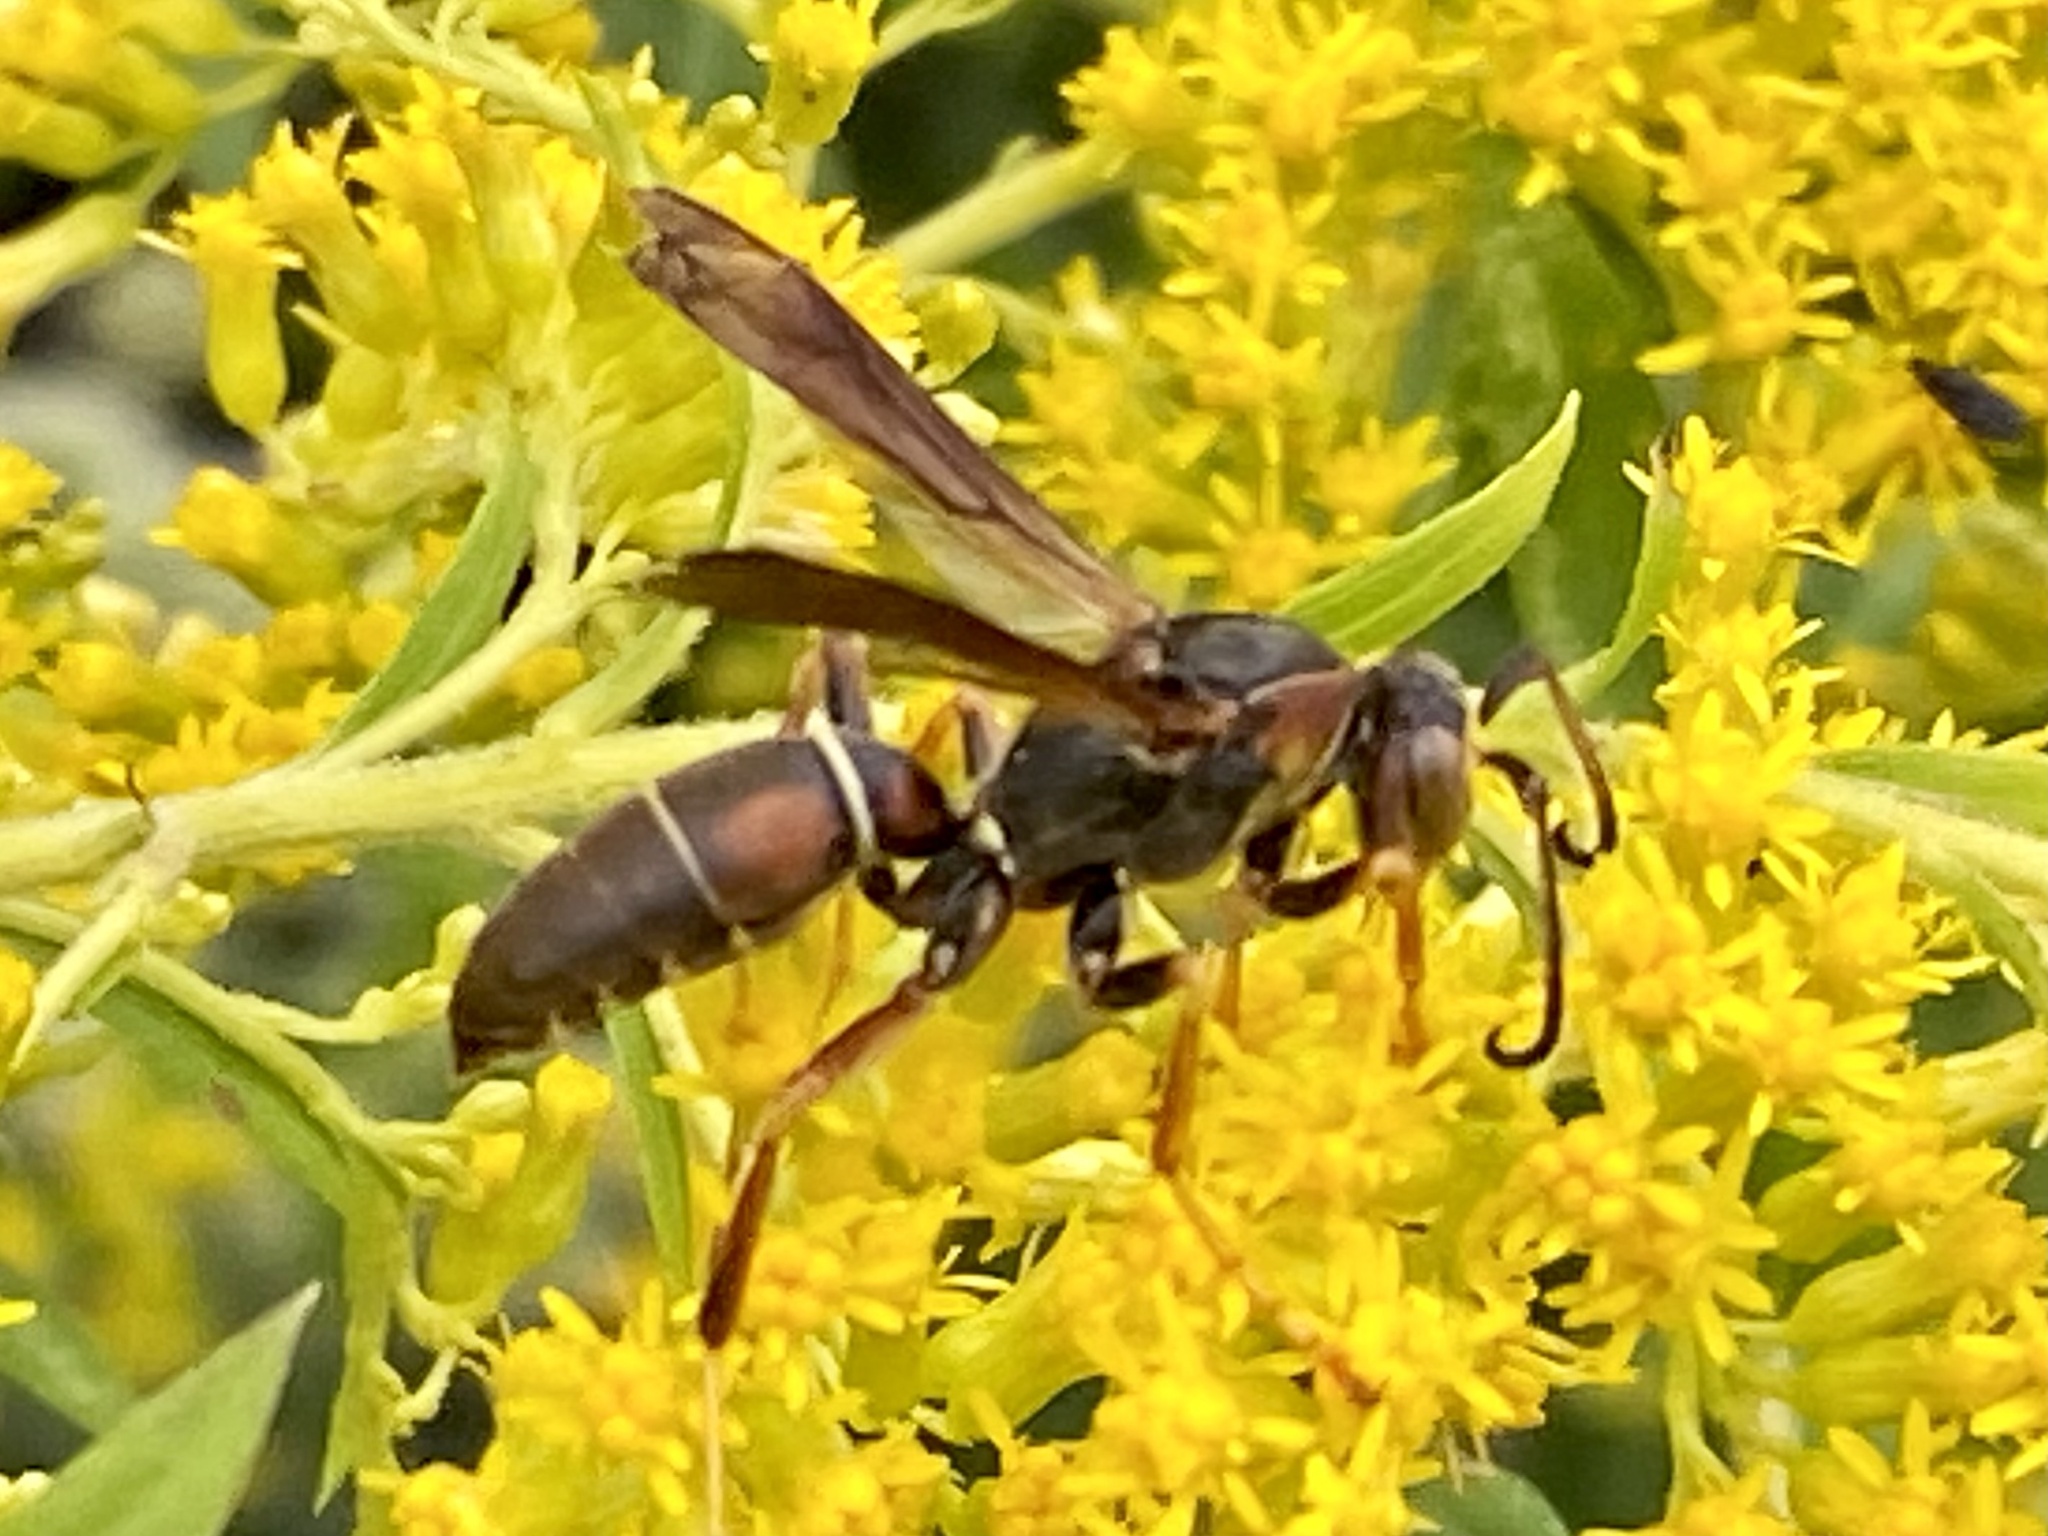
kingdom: Animalia
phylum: Arthropoda
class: Insecta
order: Hymenoptera
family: Eumenidae
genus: Polistes
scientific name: Polistes fuscatus
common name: Dark paper wasp
